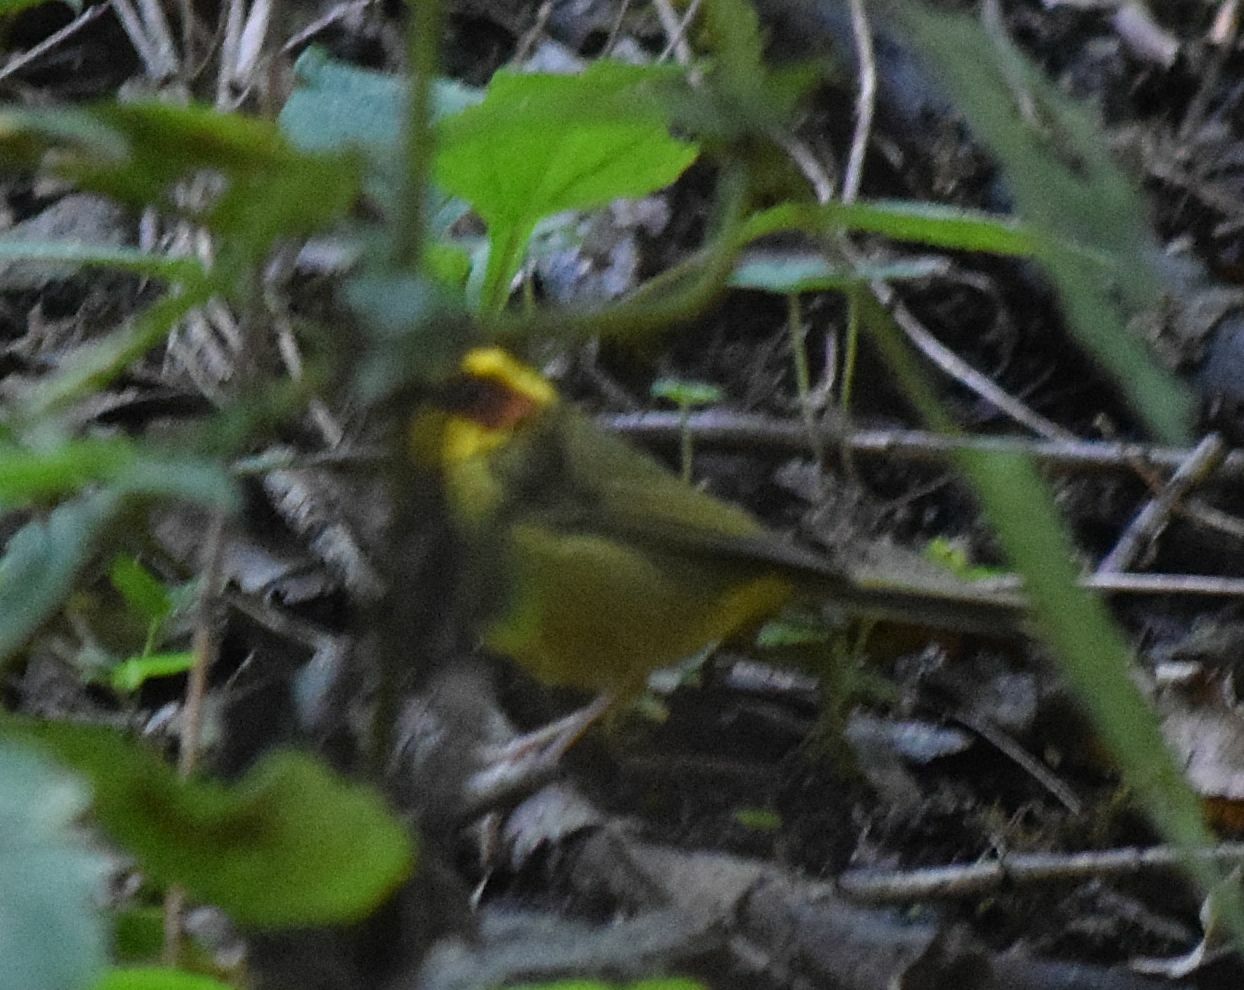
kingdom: Animalia
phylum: Chordata
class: Aves
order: Passeriformes
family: Parulidae
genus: Basileuterus
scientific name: Basileuterus belli
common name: Golden-browed warbler
